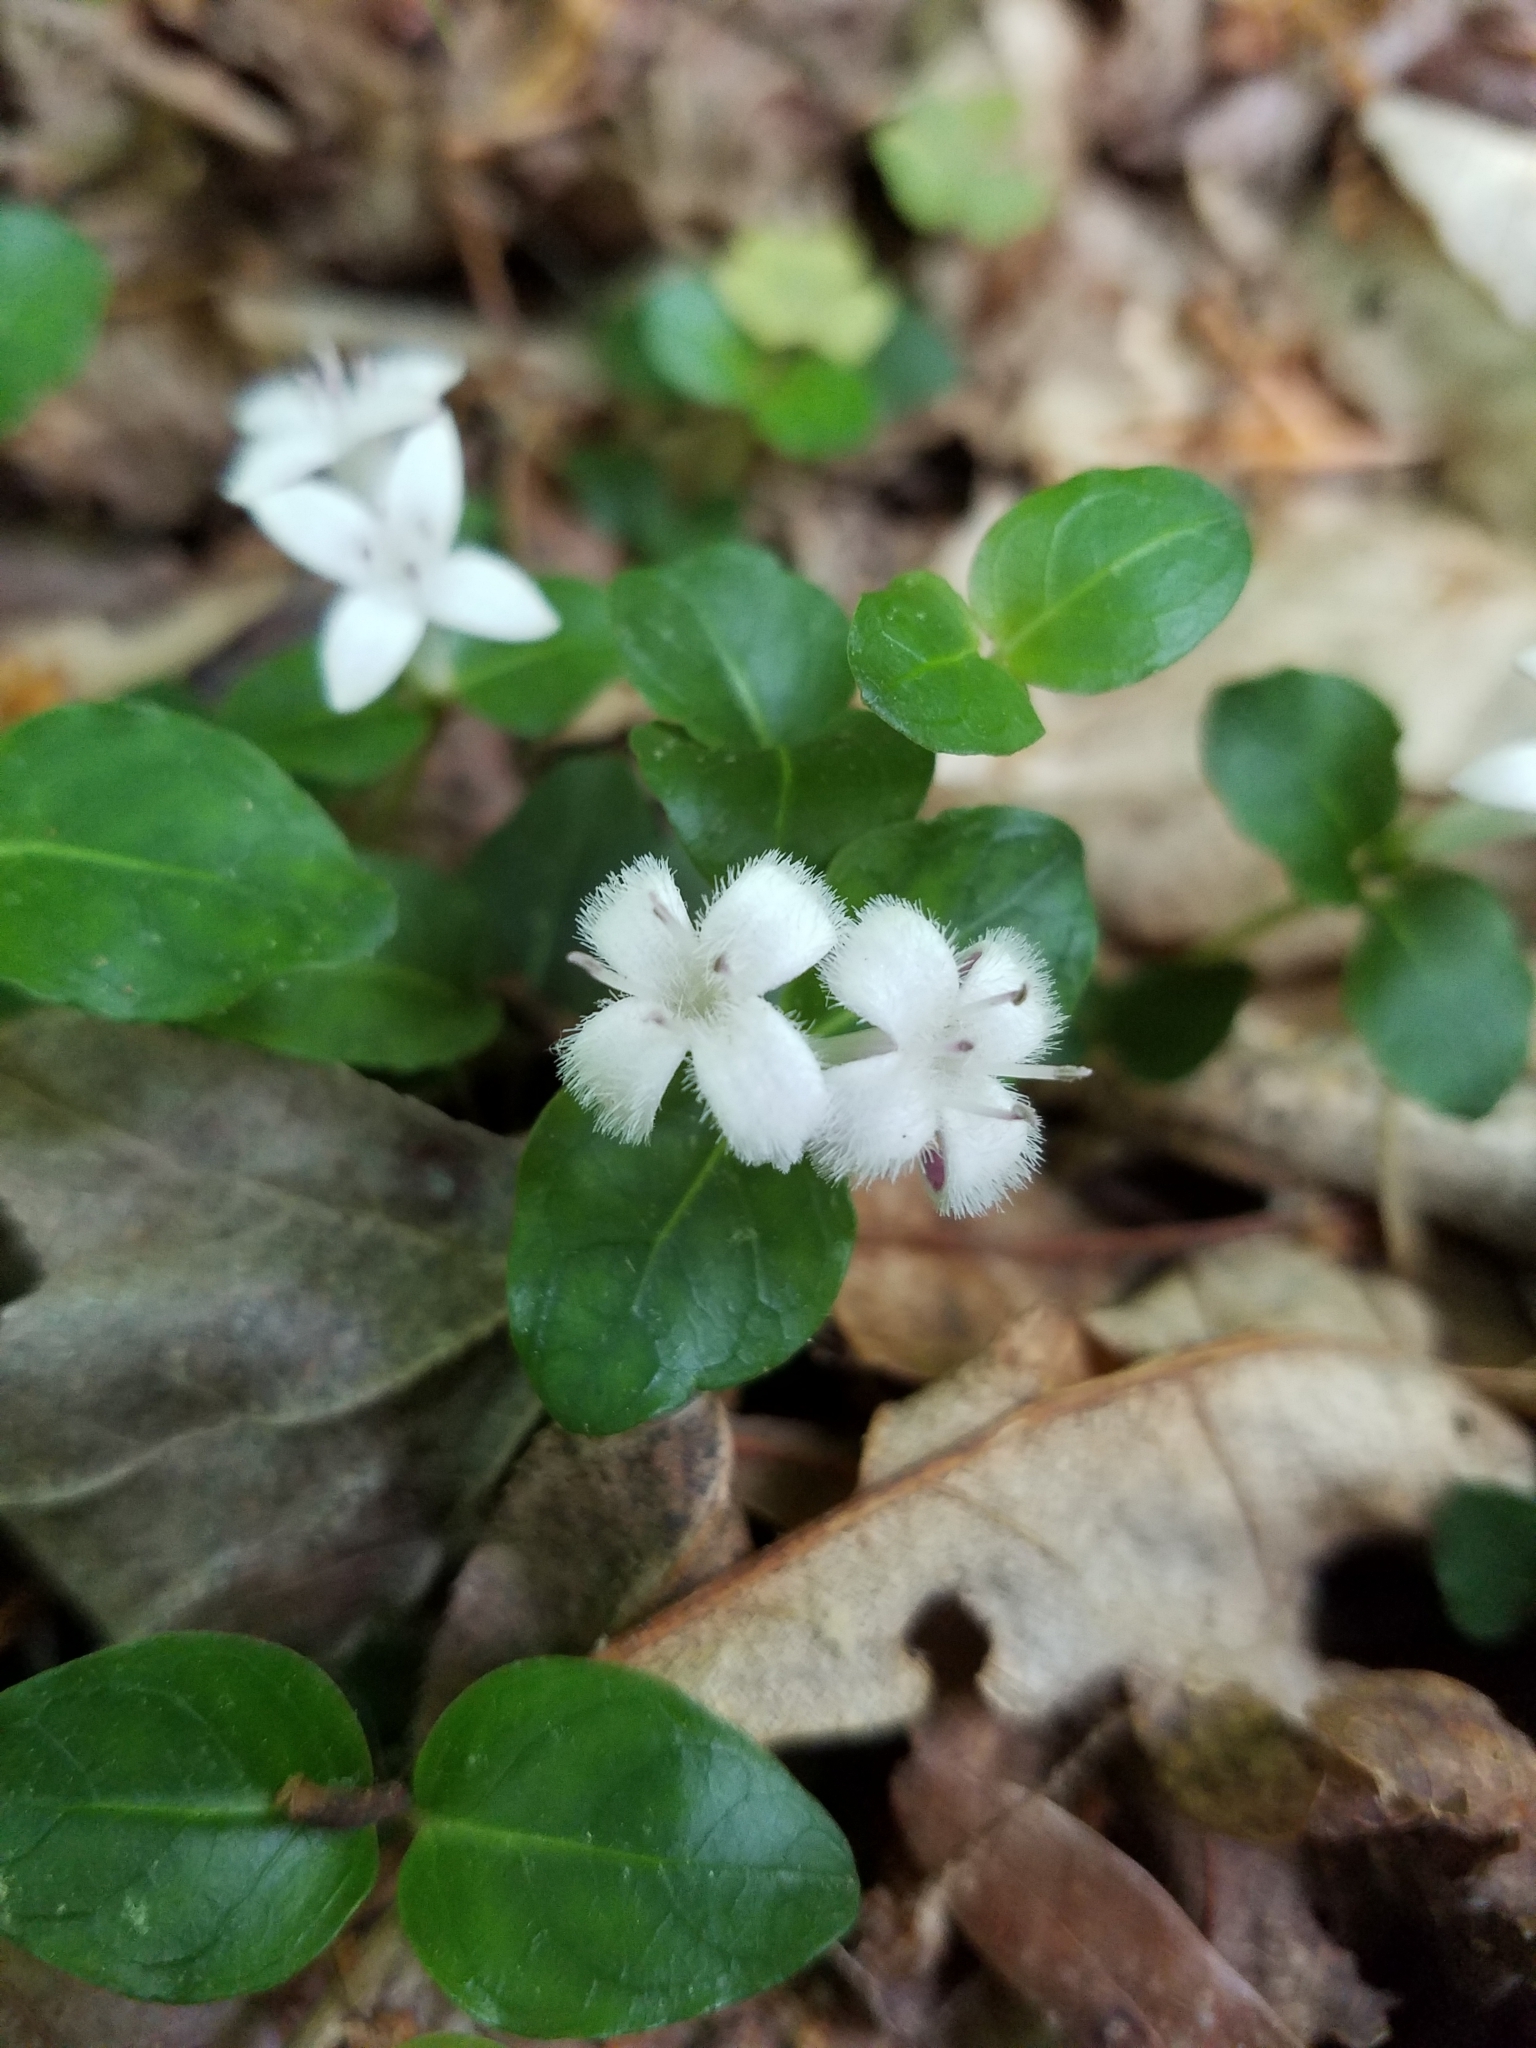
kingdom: Plantae
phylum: Tracheophyta
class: Magnoliopsida
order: Gentianales
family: Rubiaceae
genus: Mitchella
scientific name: Mitchella repens
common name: Partridge-berry
